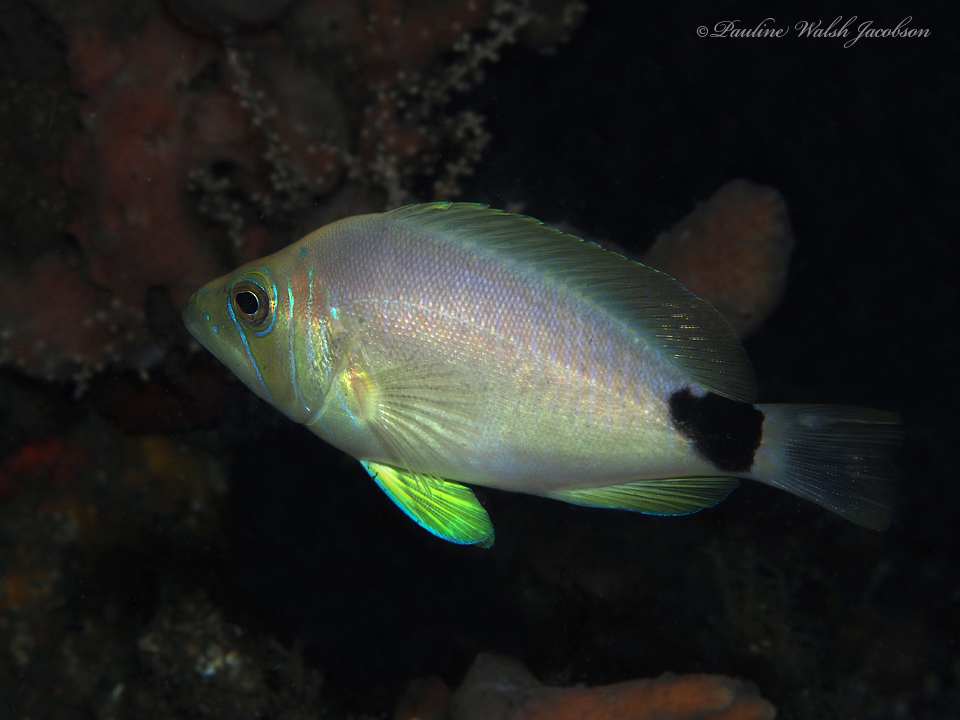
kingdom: Animalia
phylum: Chordata
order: Perciformes
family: Serranidae
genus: Hypoplectrus
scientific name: Hypoplectrus unicolor
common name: Butter hamlet
